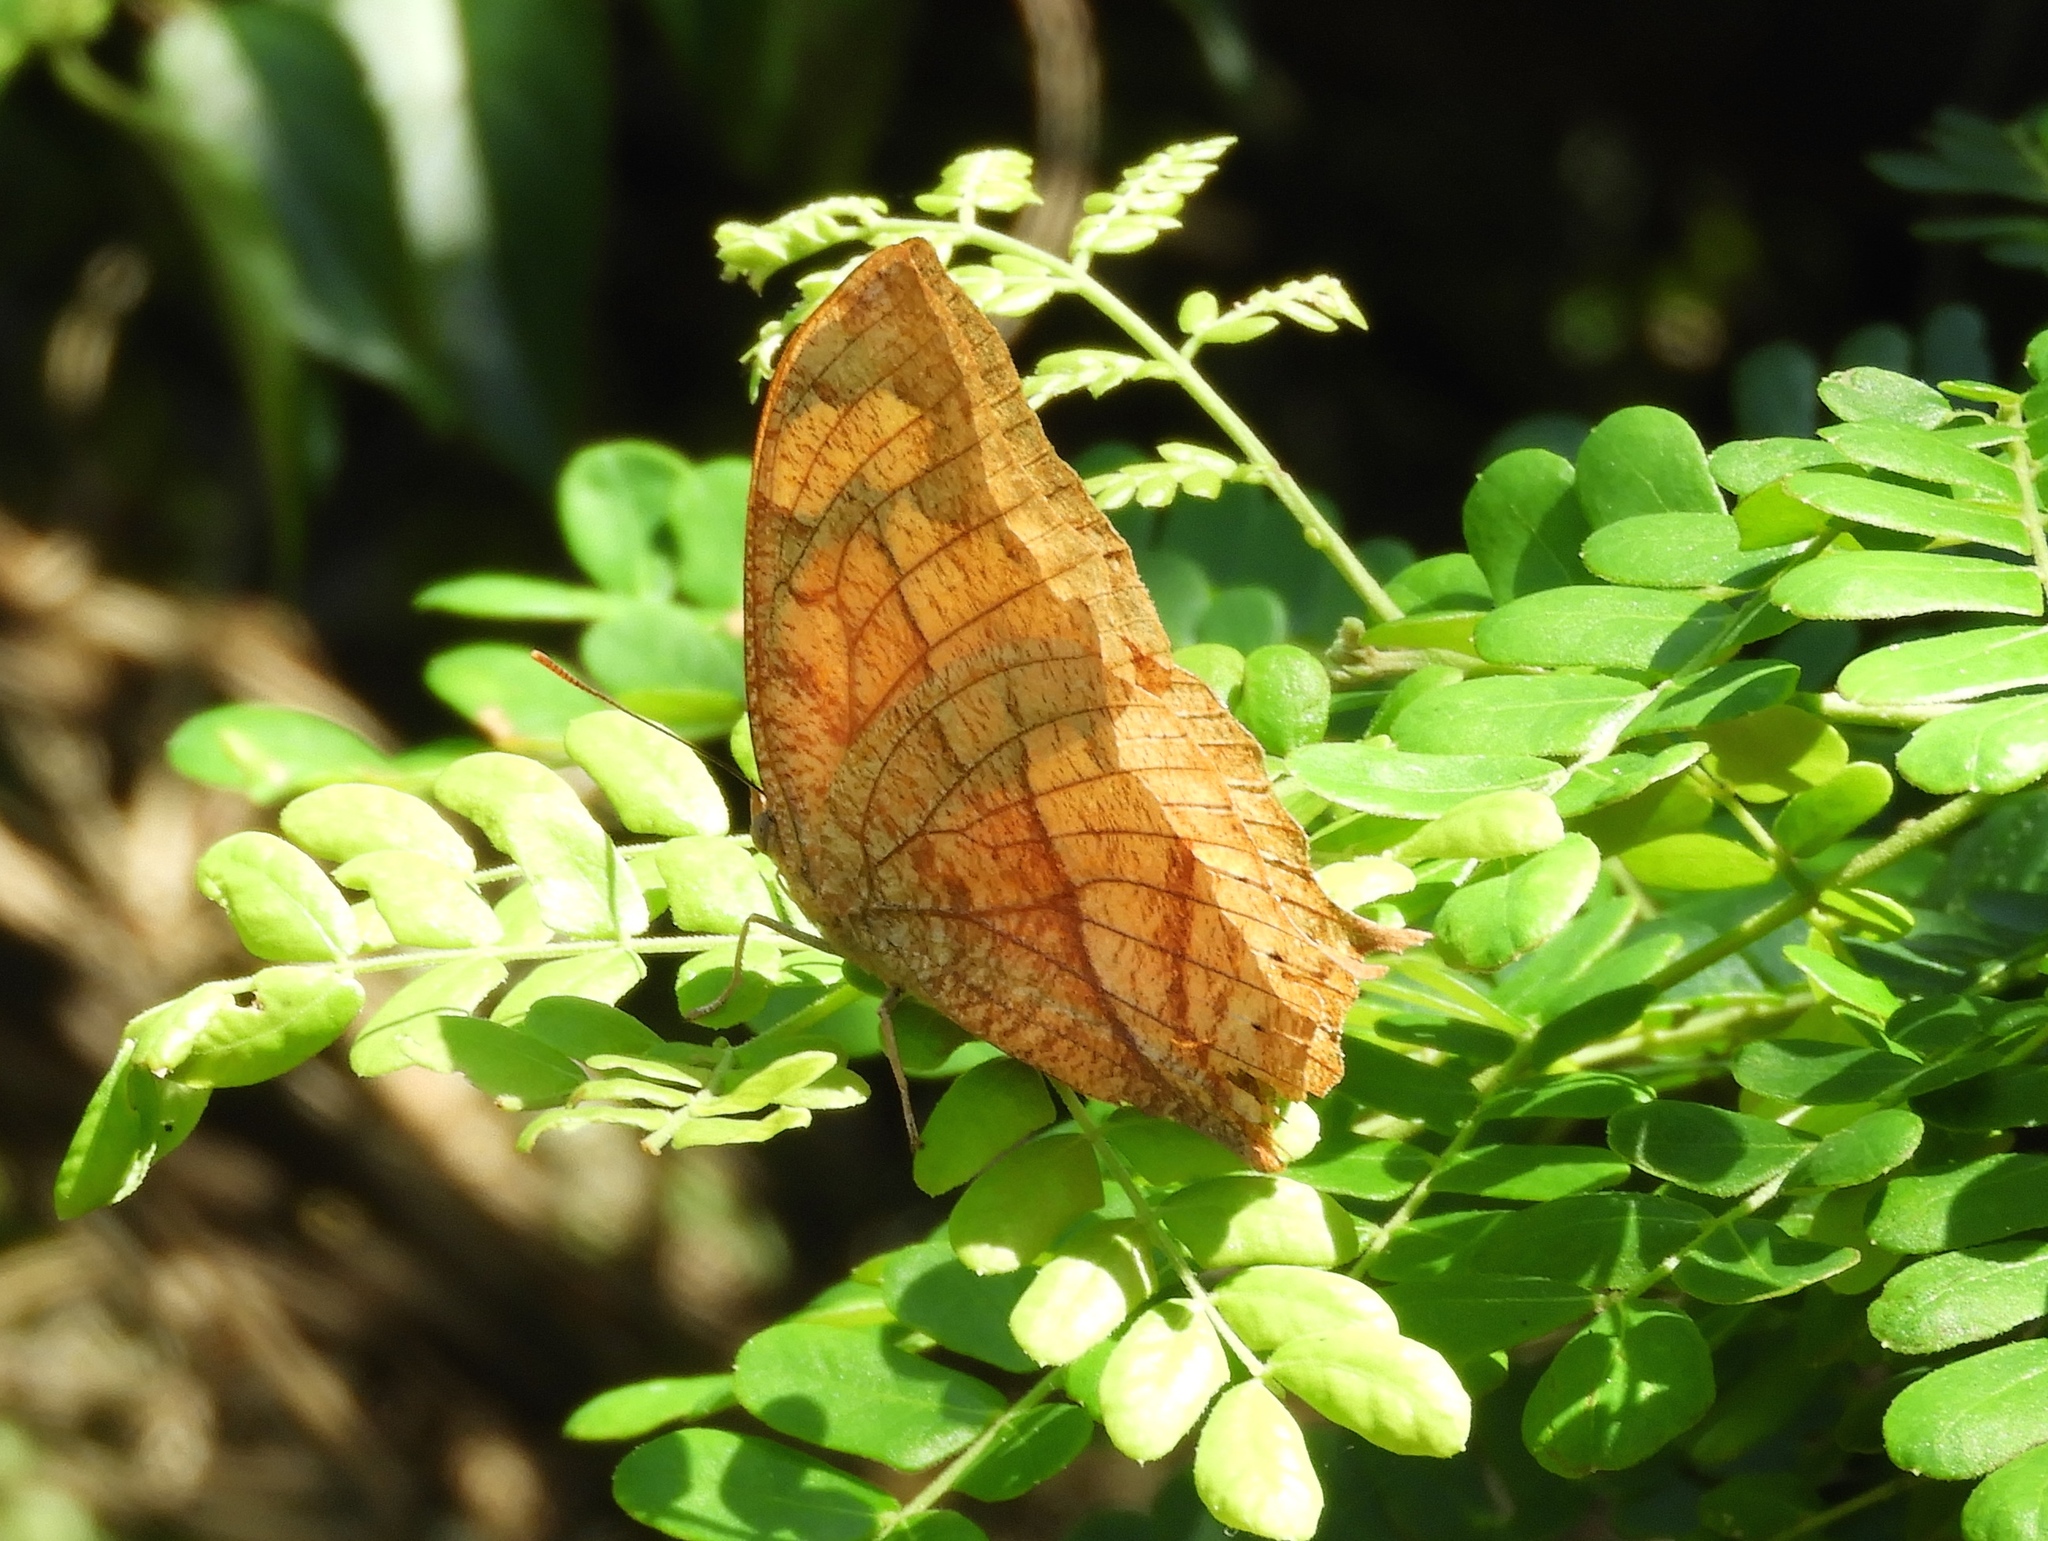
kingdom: Animalia
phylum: Arthropoda
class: Insecta
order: Lepidoptera
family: Nymphalidae
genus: Fountainea
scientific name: Fountainea
